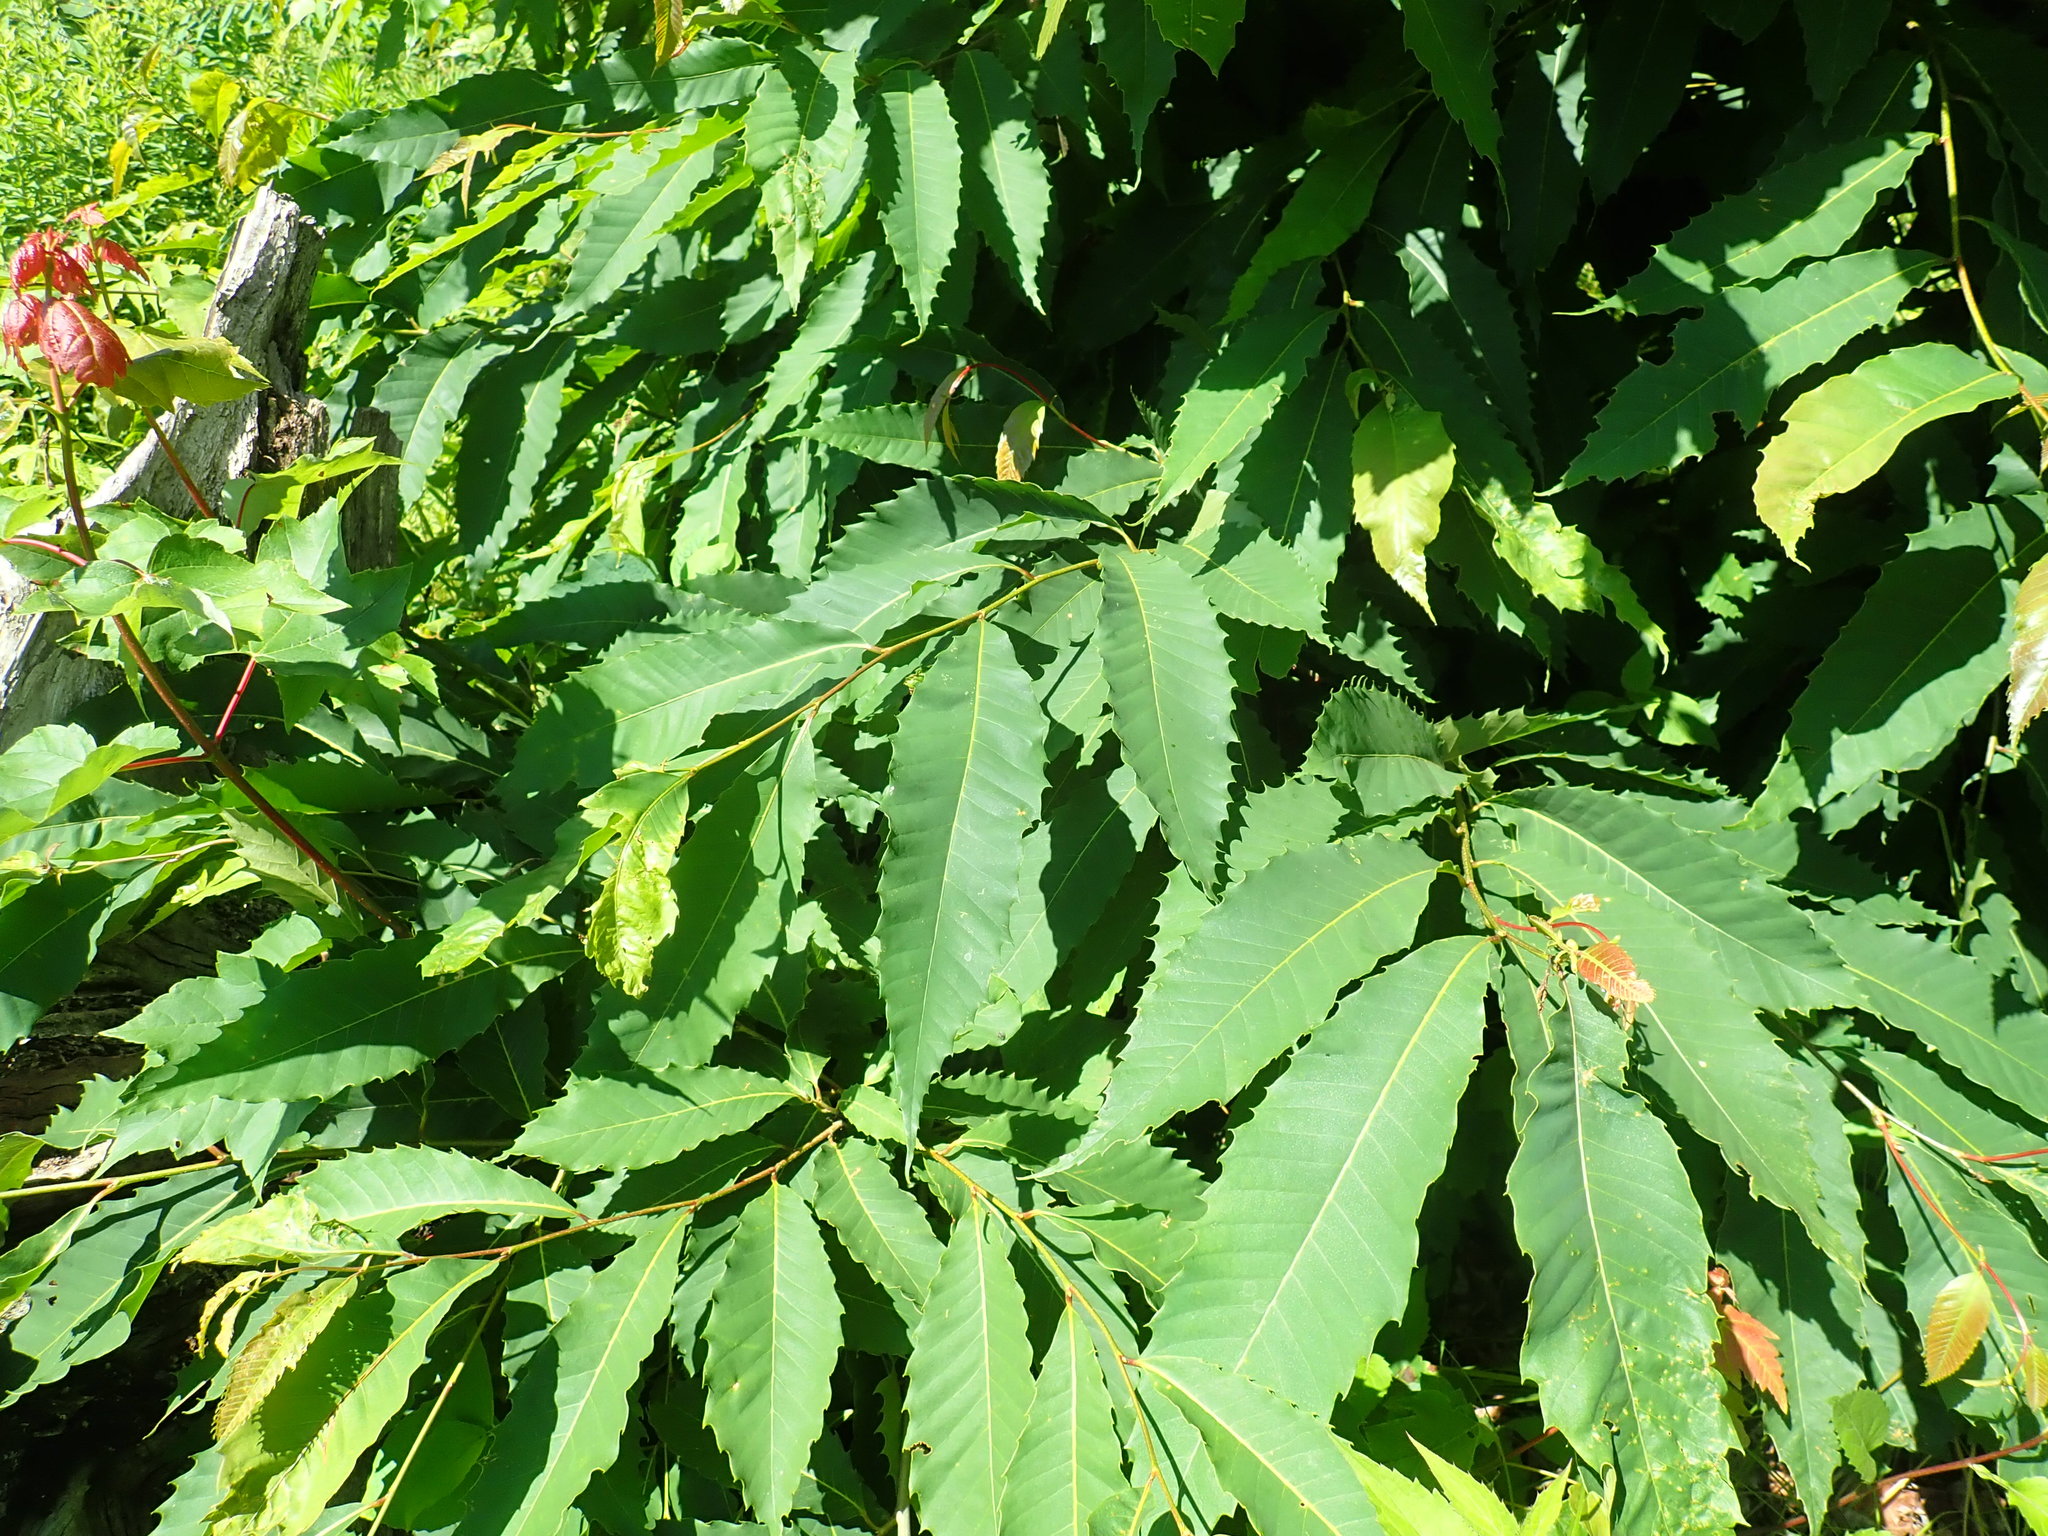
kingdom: Plantae
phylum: Tracheophyta
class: Magnoliopsida
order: Fagales
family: Fagaceae
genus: Castanea
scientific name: Castanea dentata
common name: American chestnut
